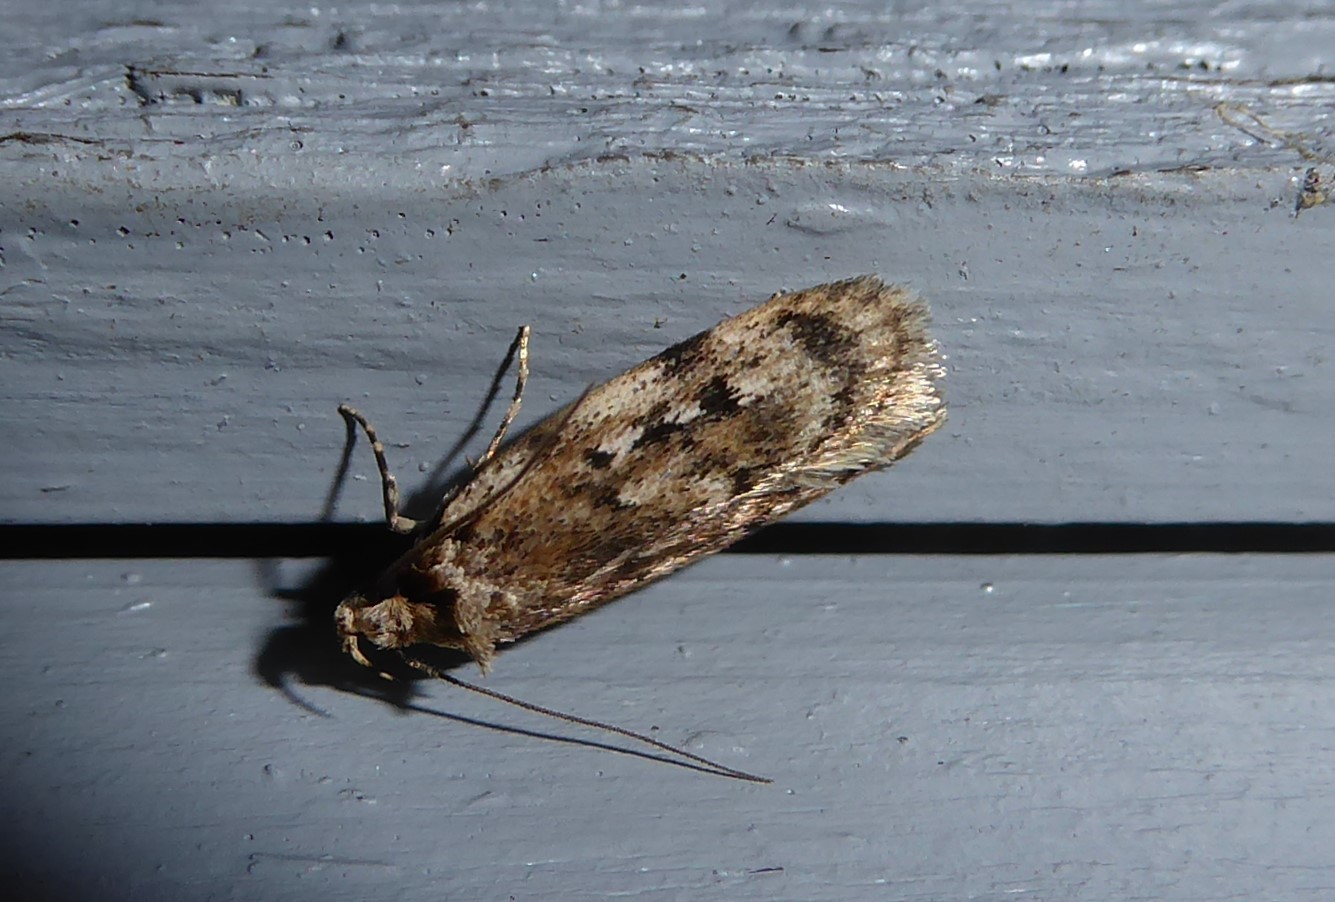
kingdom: Animalia
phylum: Arthropoda
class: Insecta
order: Lepidoptera
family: Oecophoridae
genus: Barea
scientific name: Barea exarcha
